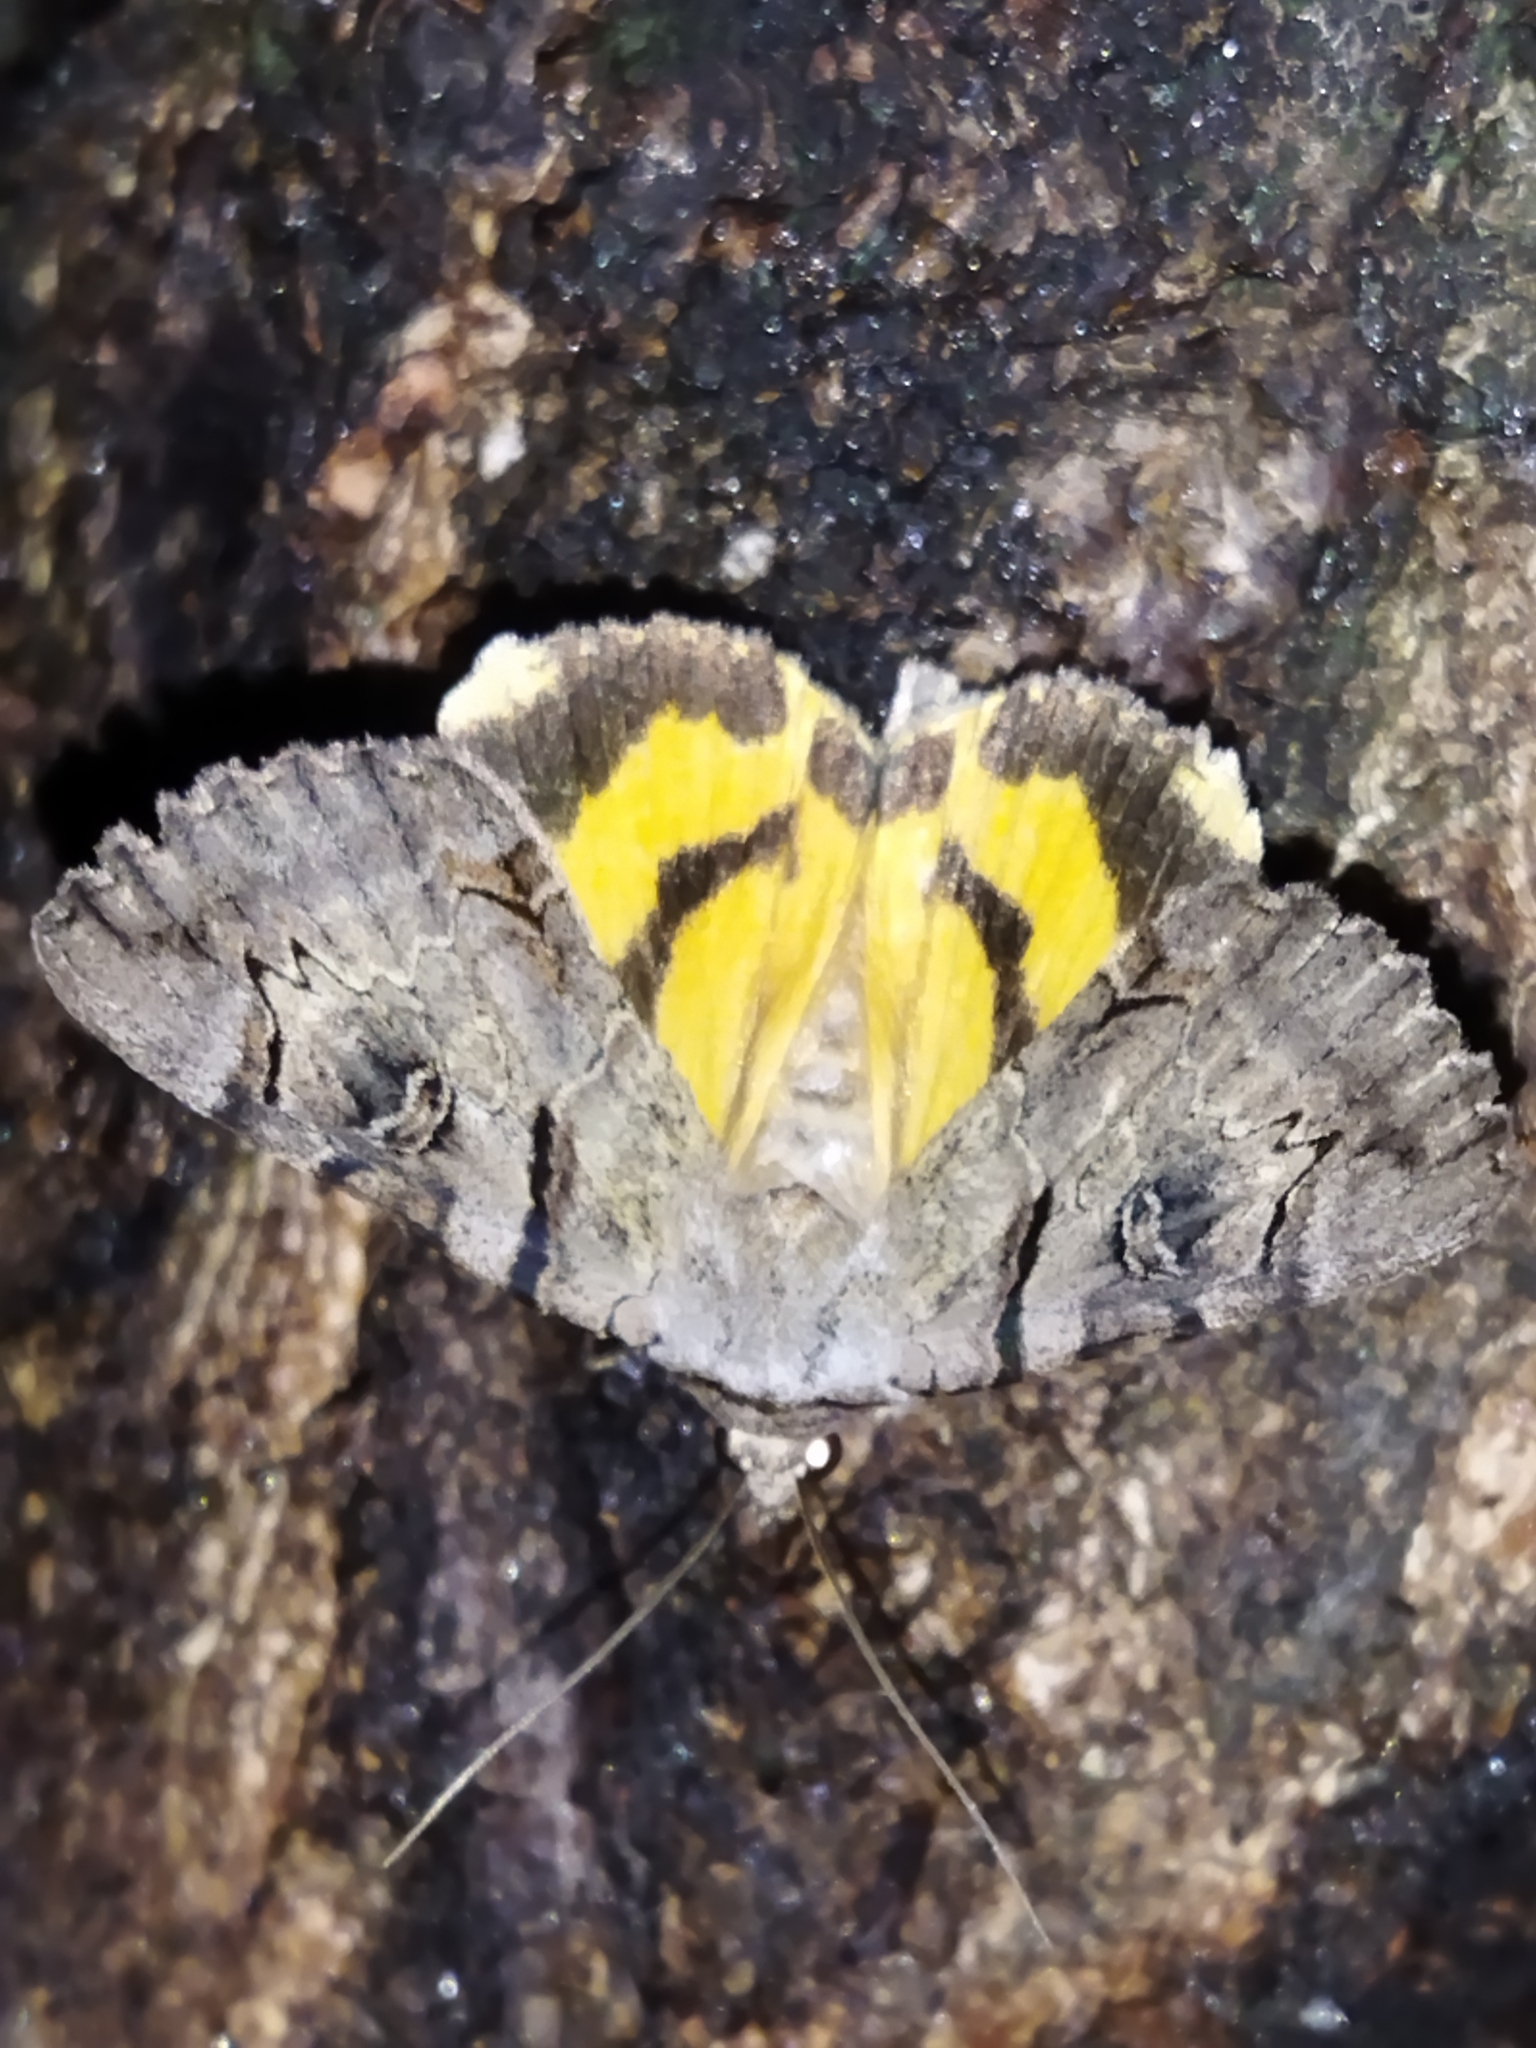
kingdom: Animalia
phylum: Arthropoda
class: Insecta
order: Lepidoptera
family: Erebidae
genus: Catocala
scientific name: Catocala hymenaea
